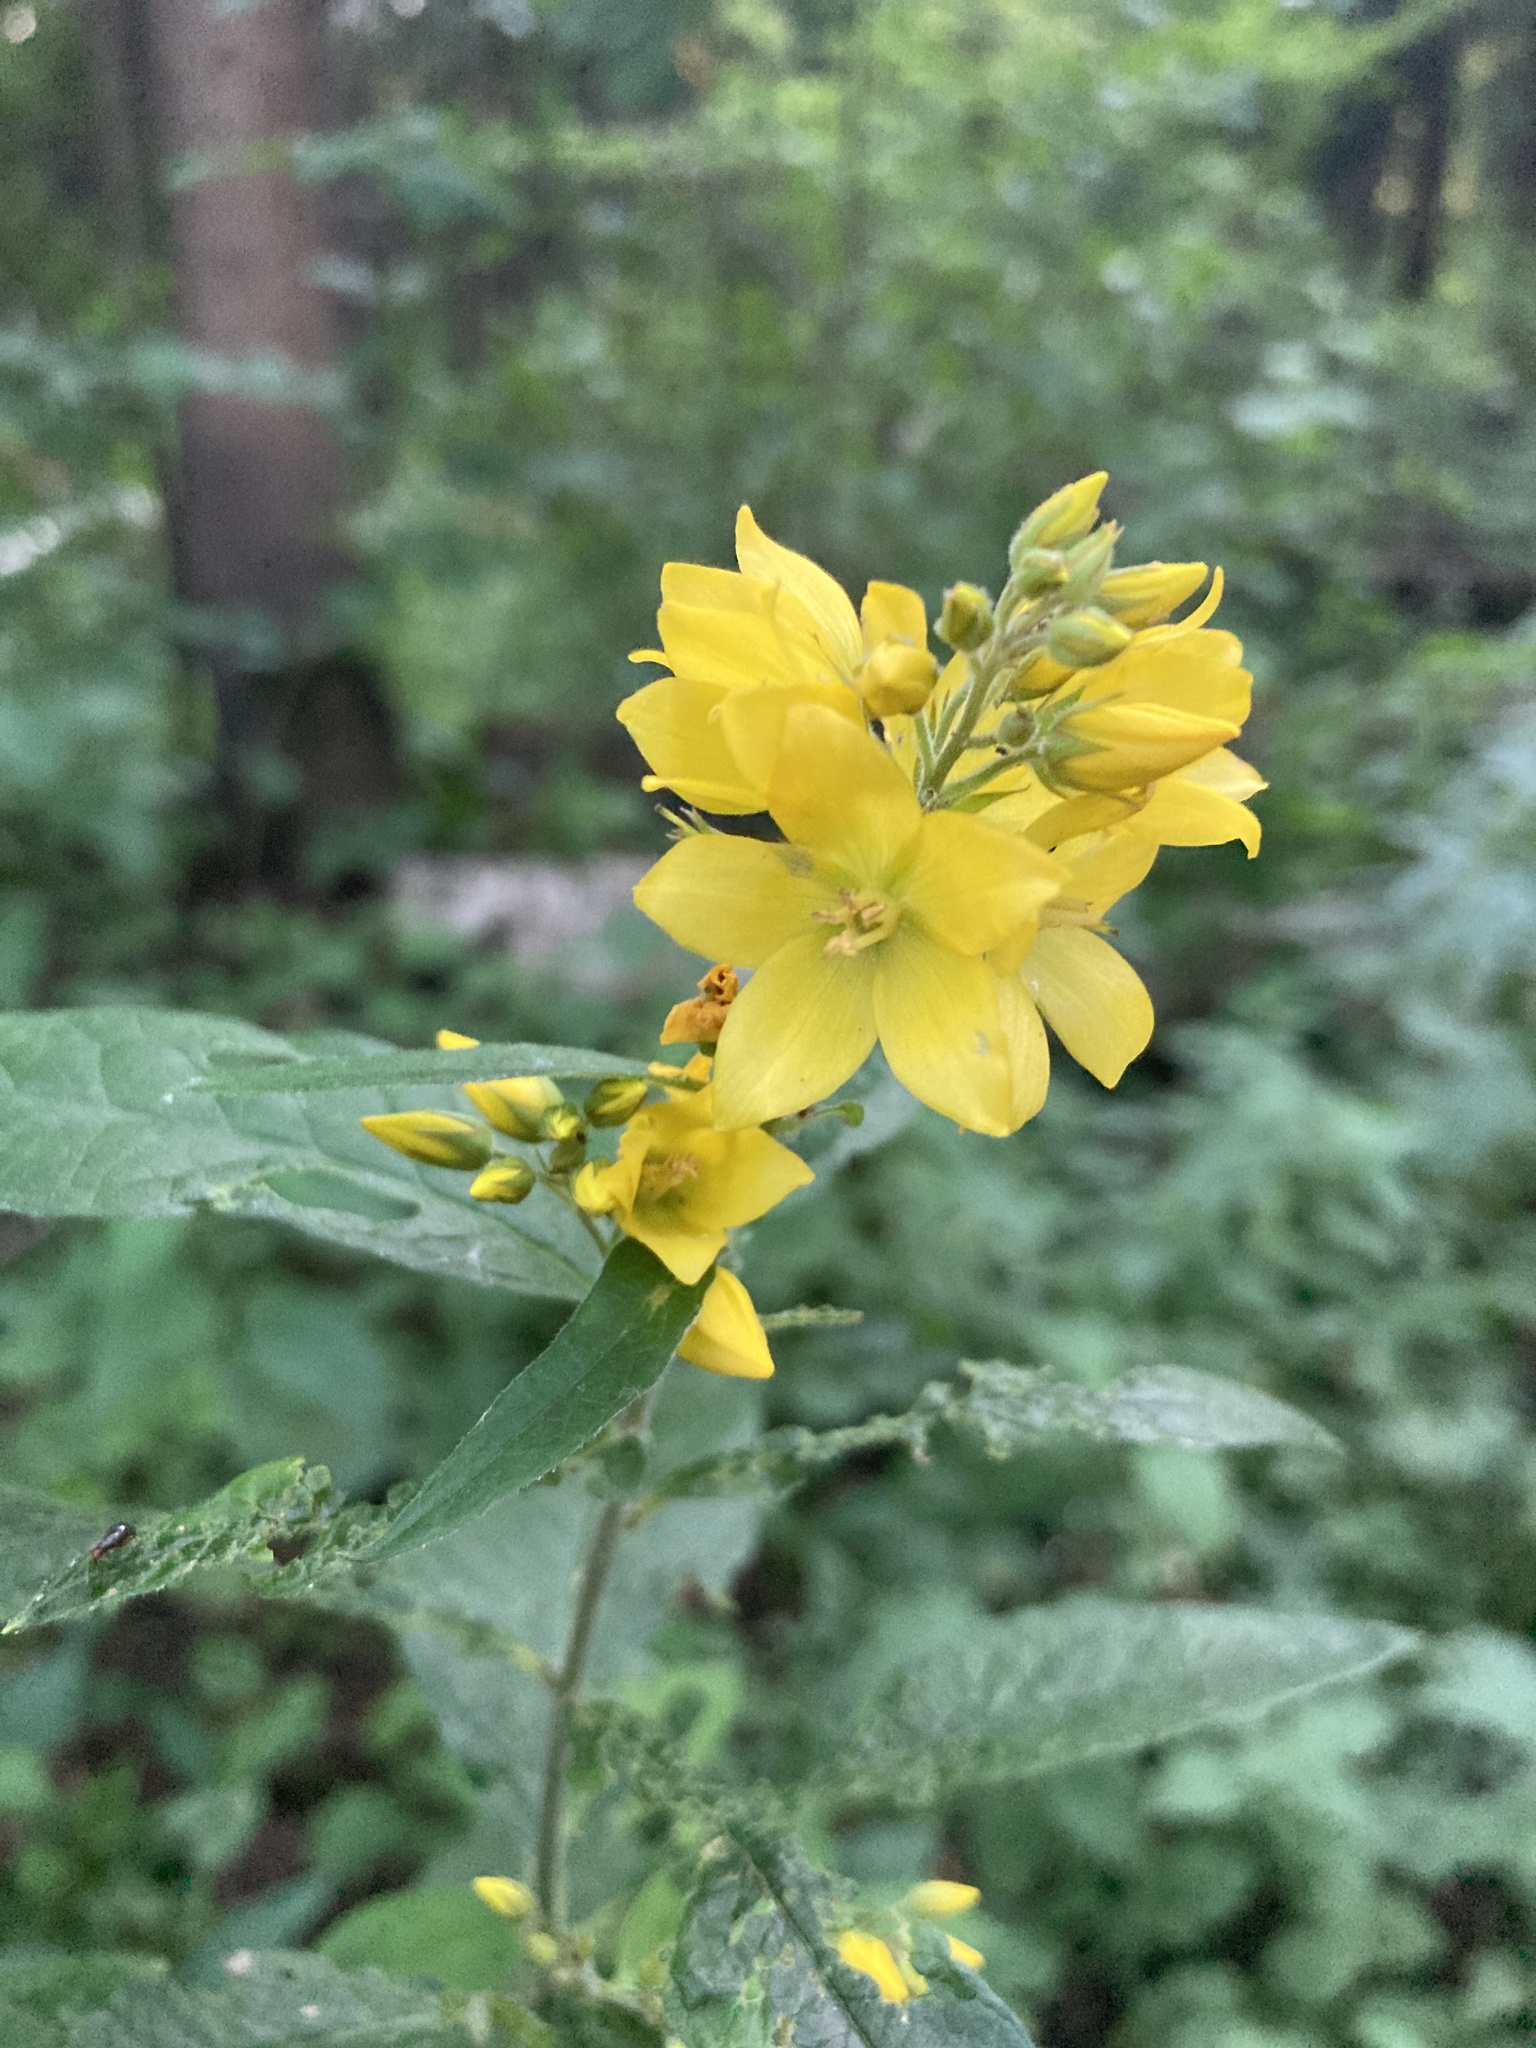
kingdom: Plantae
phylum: Tracheophyta
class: Magnoliopsida
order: Ericales
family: Primulaceae
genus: Lysimachia
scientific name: Lysimachia vulgaris
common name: Yellow loosestrife
